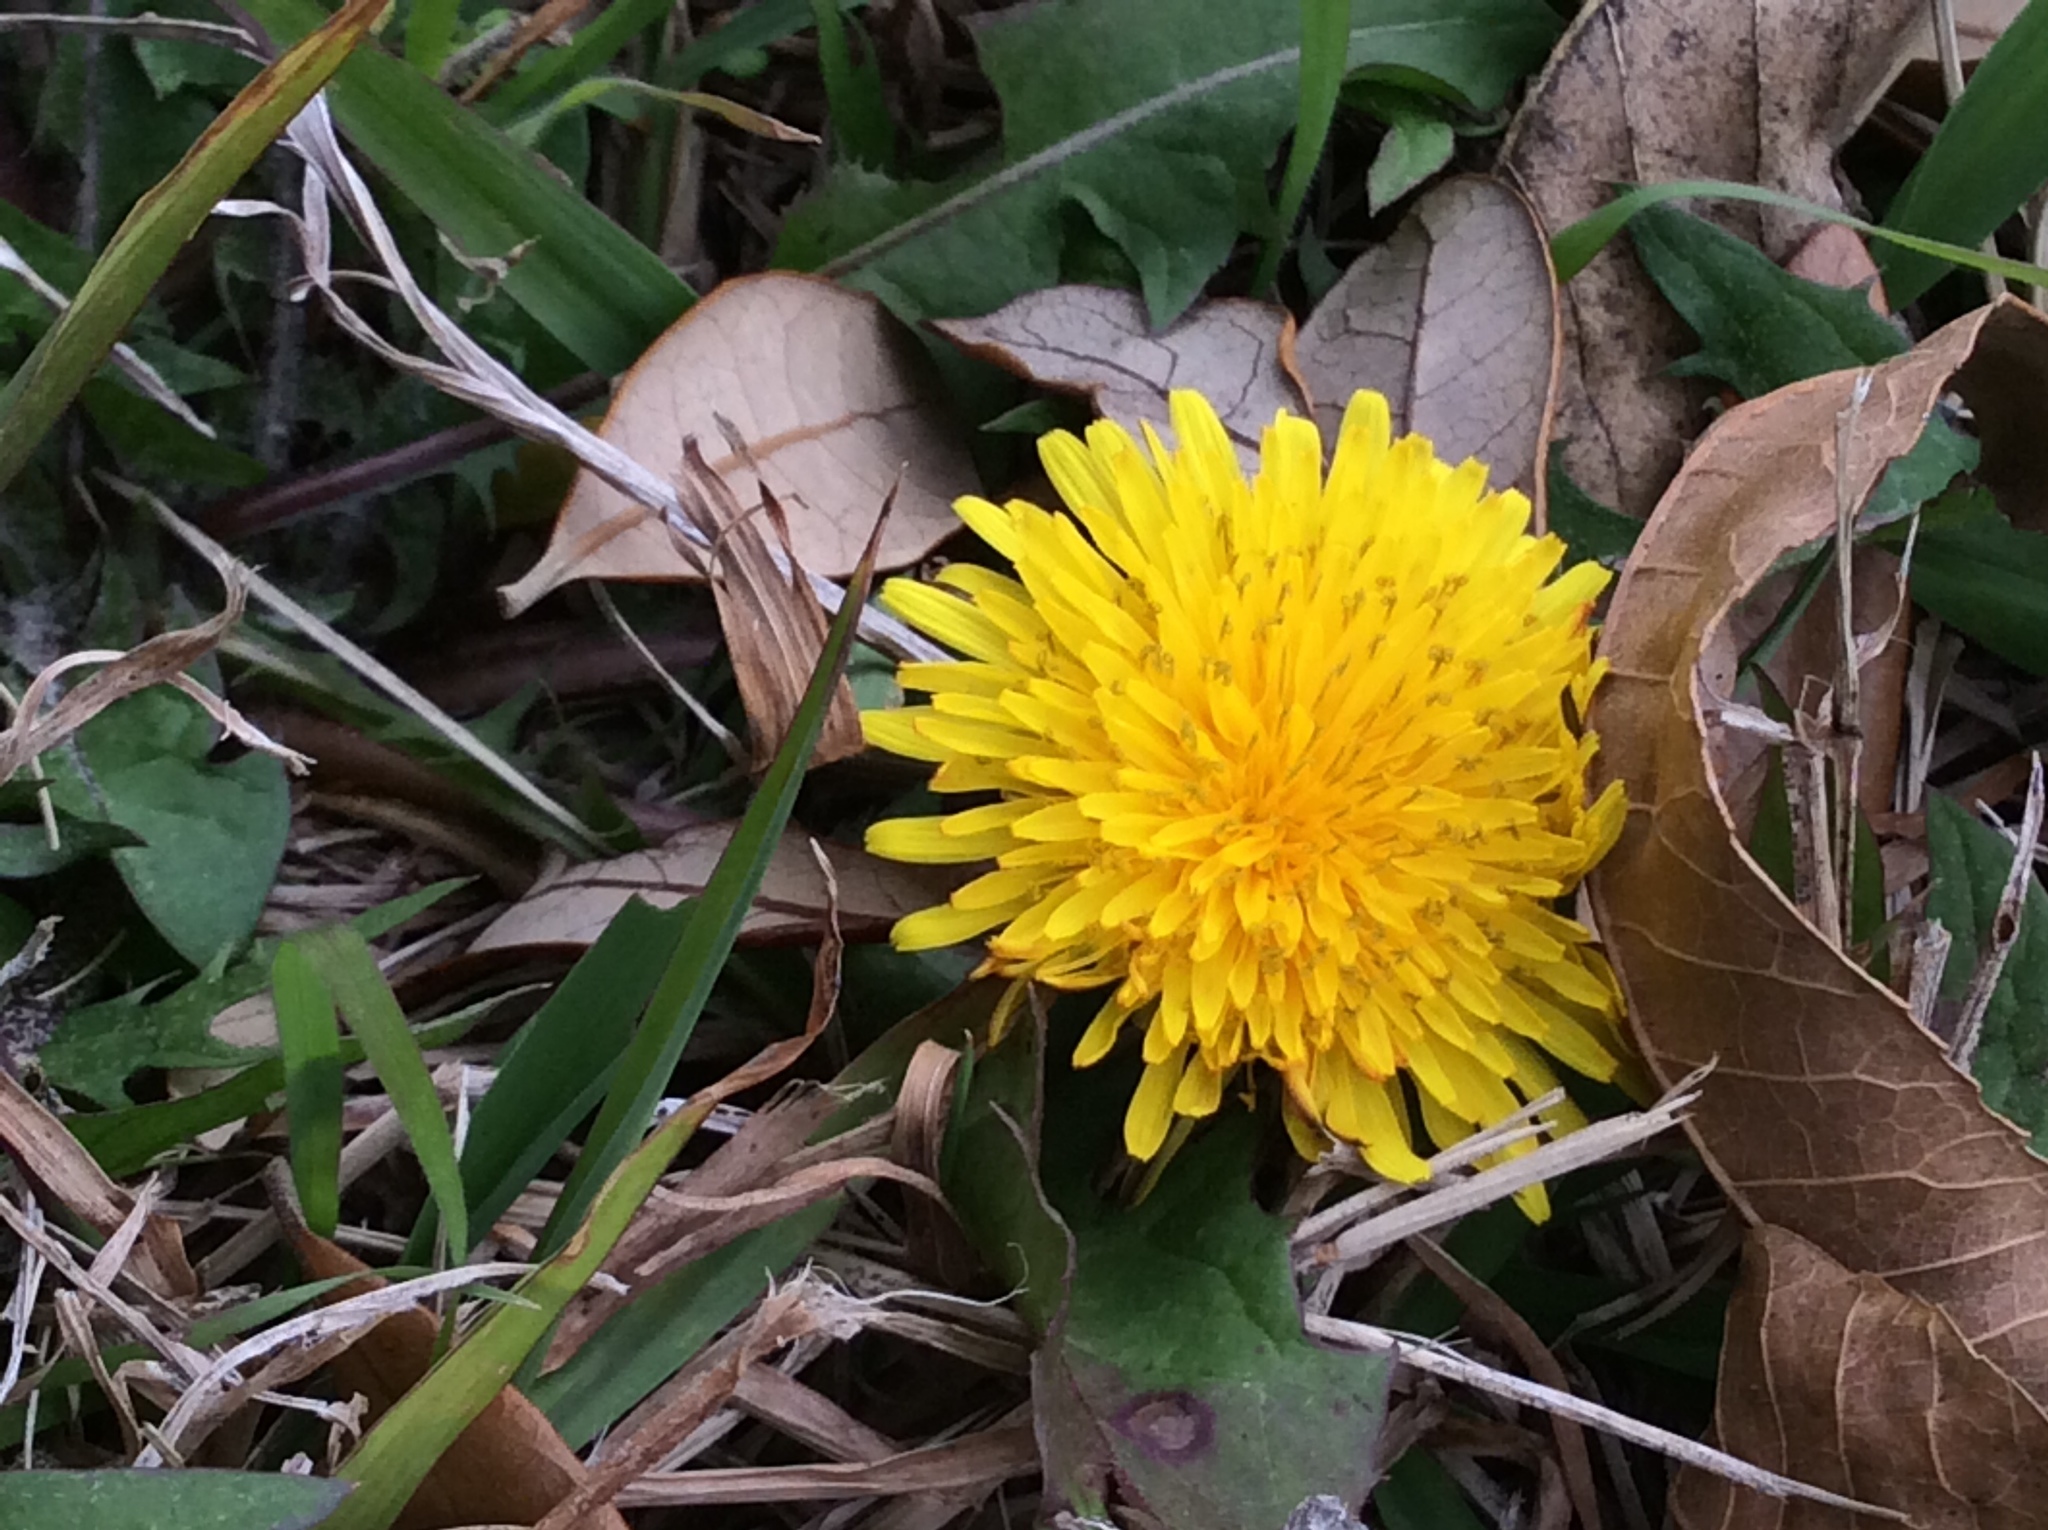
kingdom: Plantae
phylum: Tracheophyta
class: Magnoliopsida
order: Asterales
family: Asteraceae
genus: Taraxacum
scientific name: Taraxacum officinale
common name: Common dandelion
